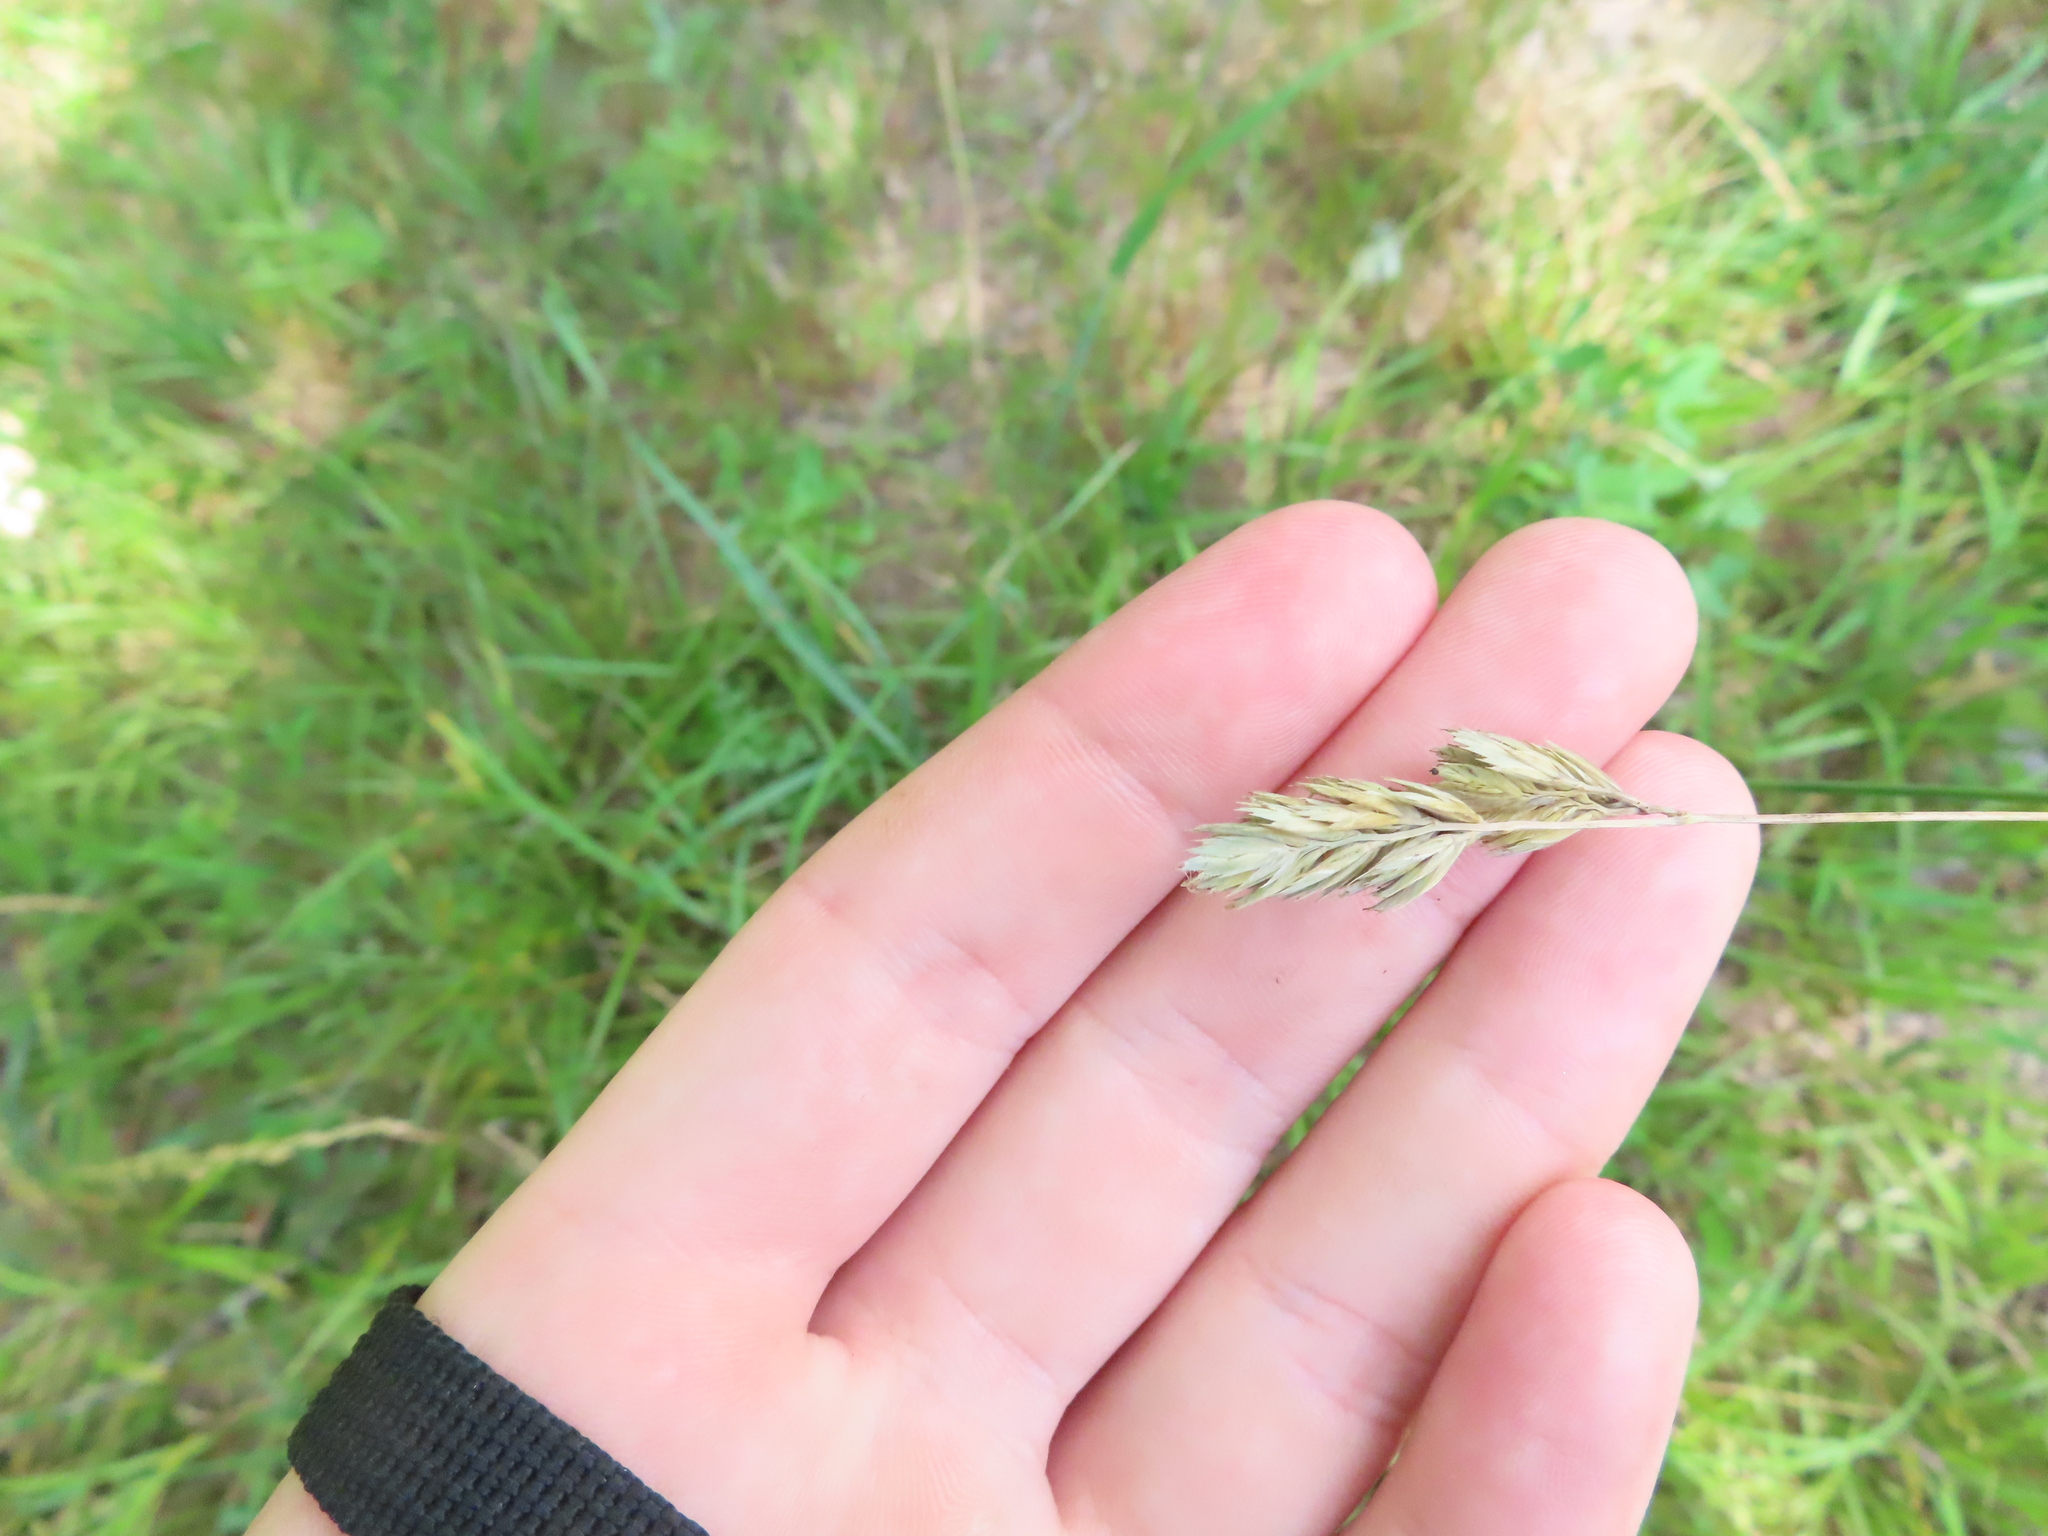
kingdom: Plantae
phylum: Tracheophyta
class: Liliopsida
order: Poales
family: Poaceae
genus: Dactylis
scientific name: Dactylis glomerata
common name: Orchardgrass
